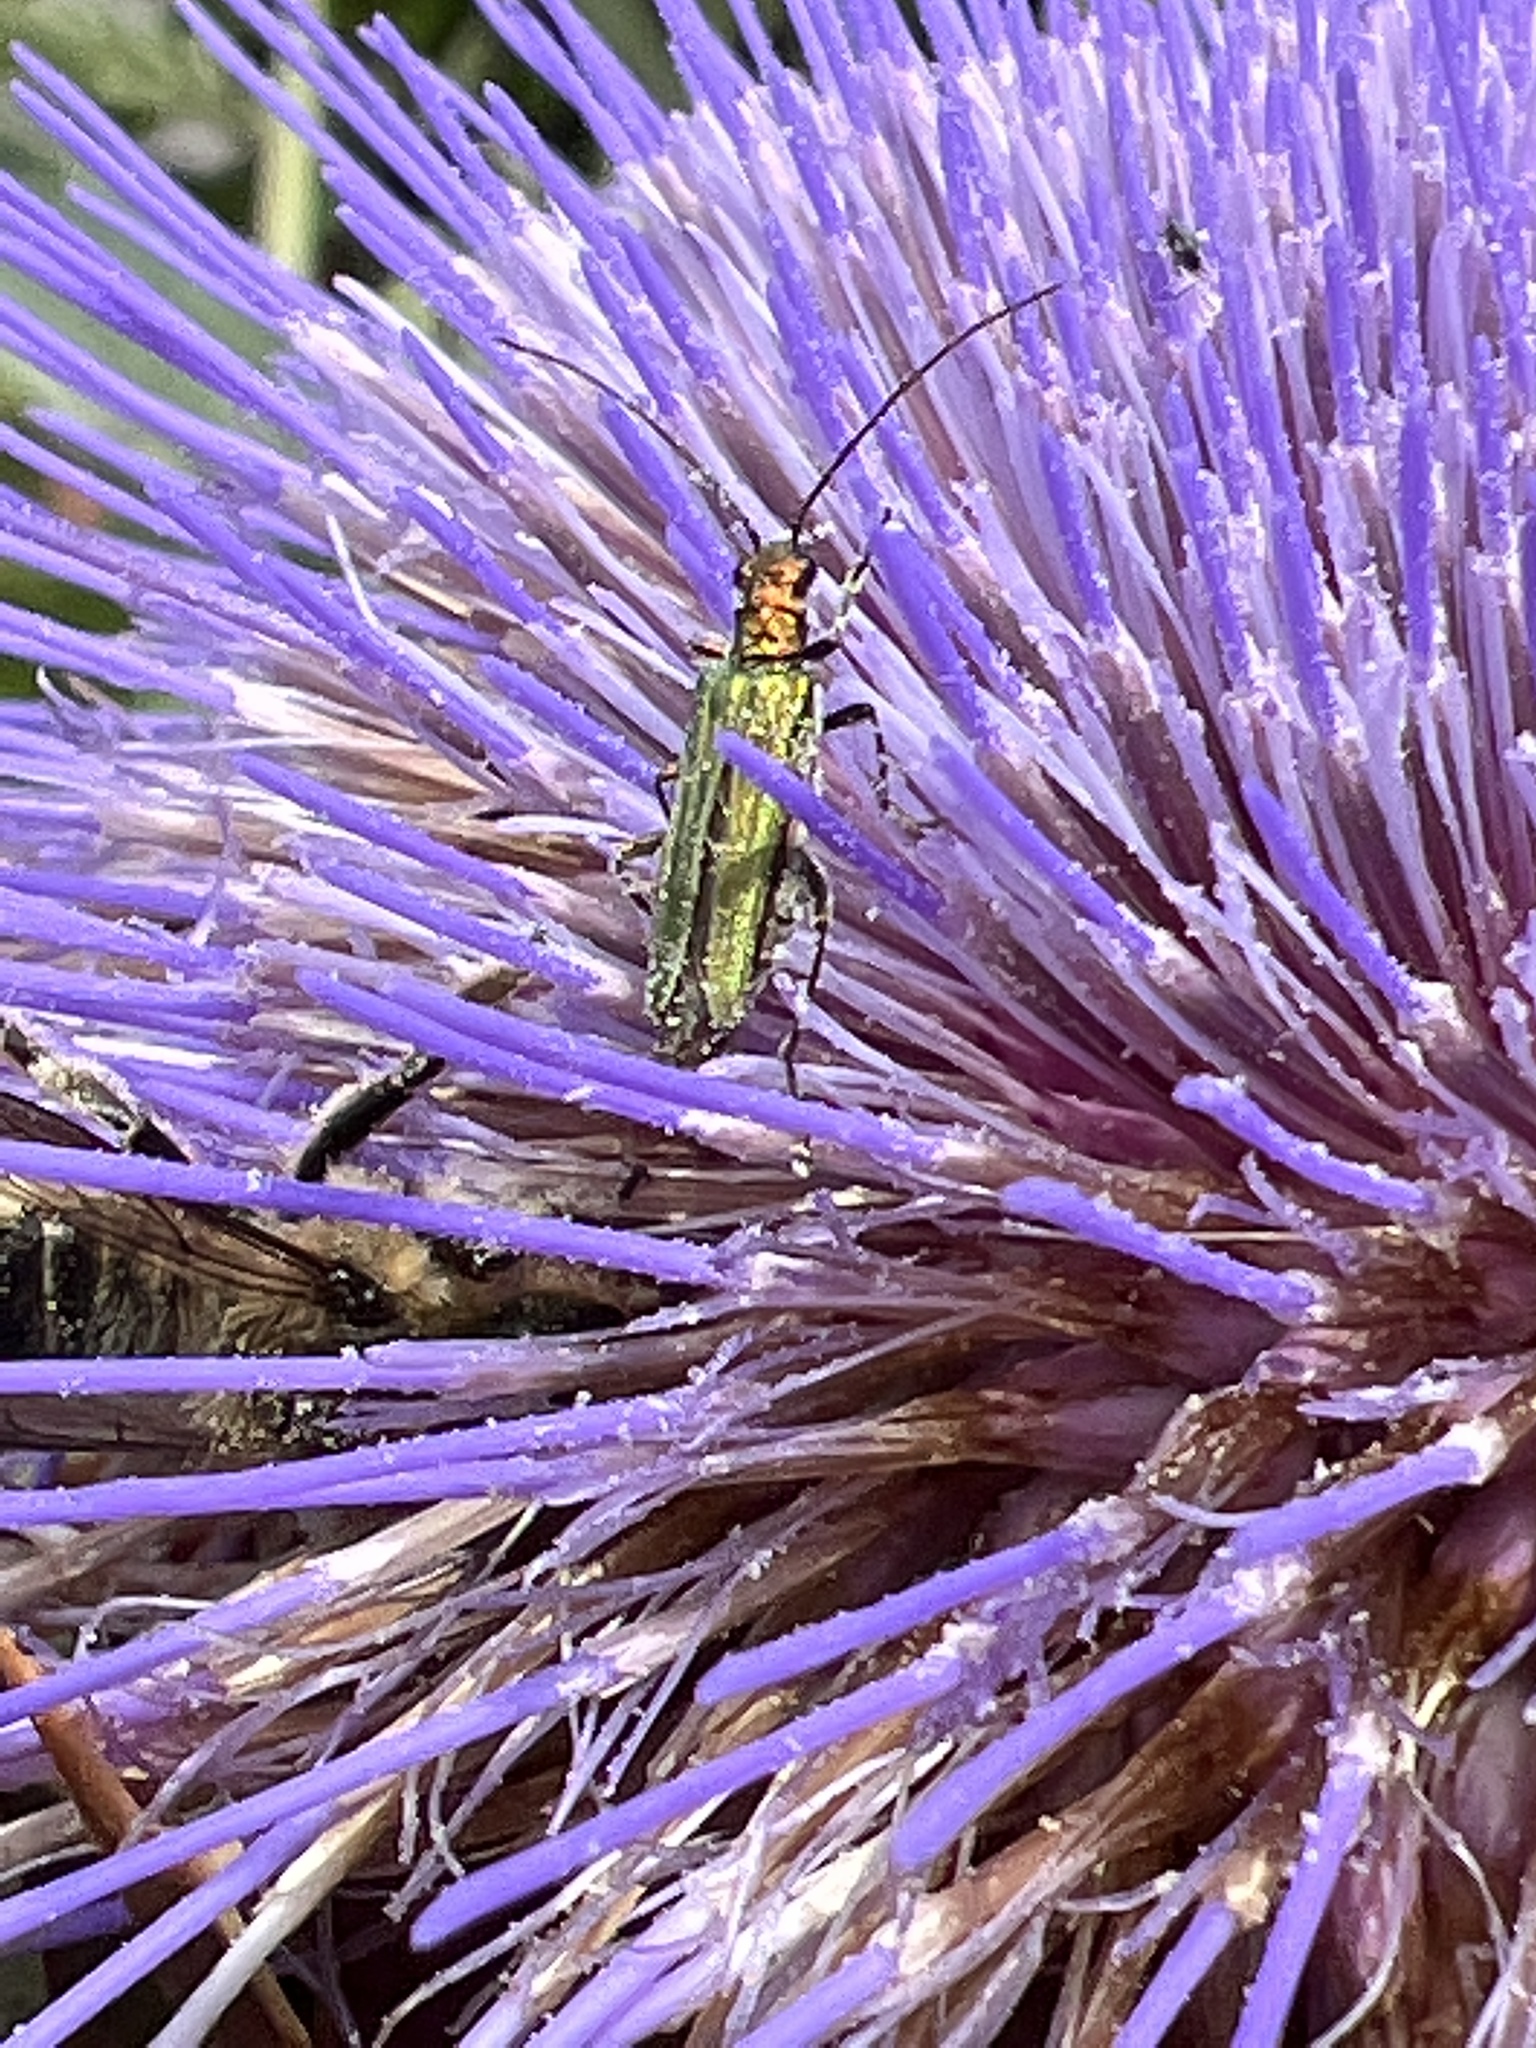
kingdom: Animalia
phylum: Arthropoda
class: Insecta
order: Coleoptera
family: Oedemeridae
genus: Oedemera
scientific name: Oedemera nobilis
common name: Swollen-thighed beetle
